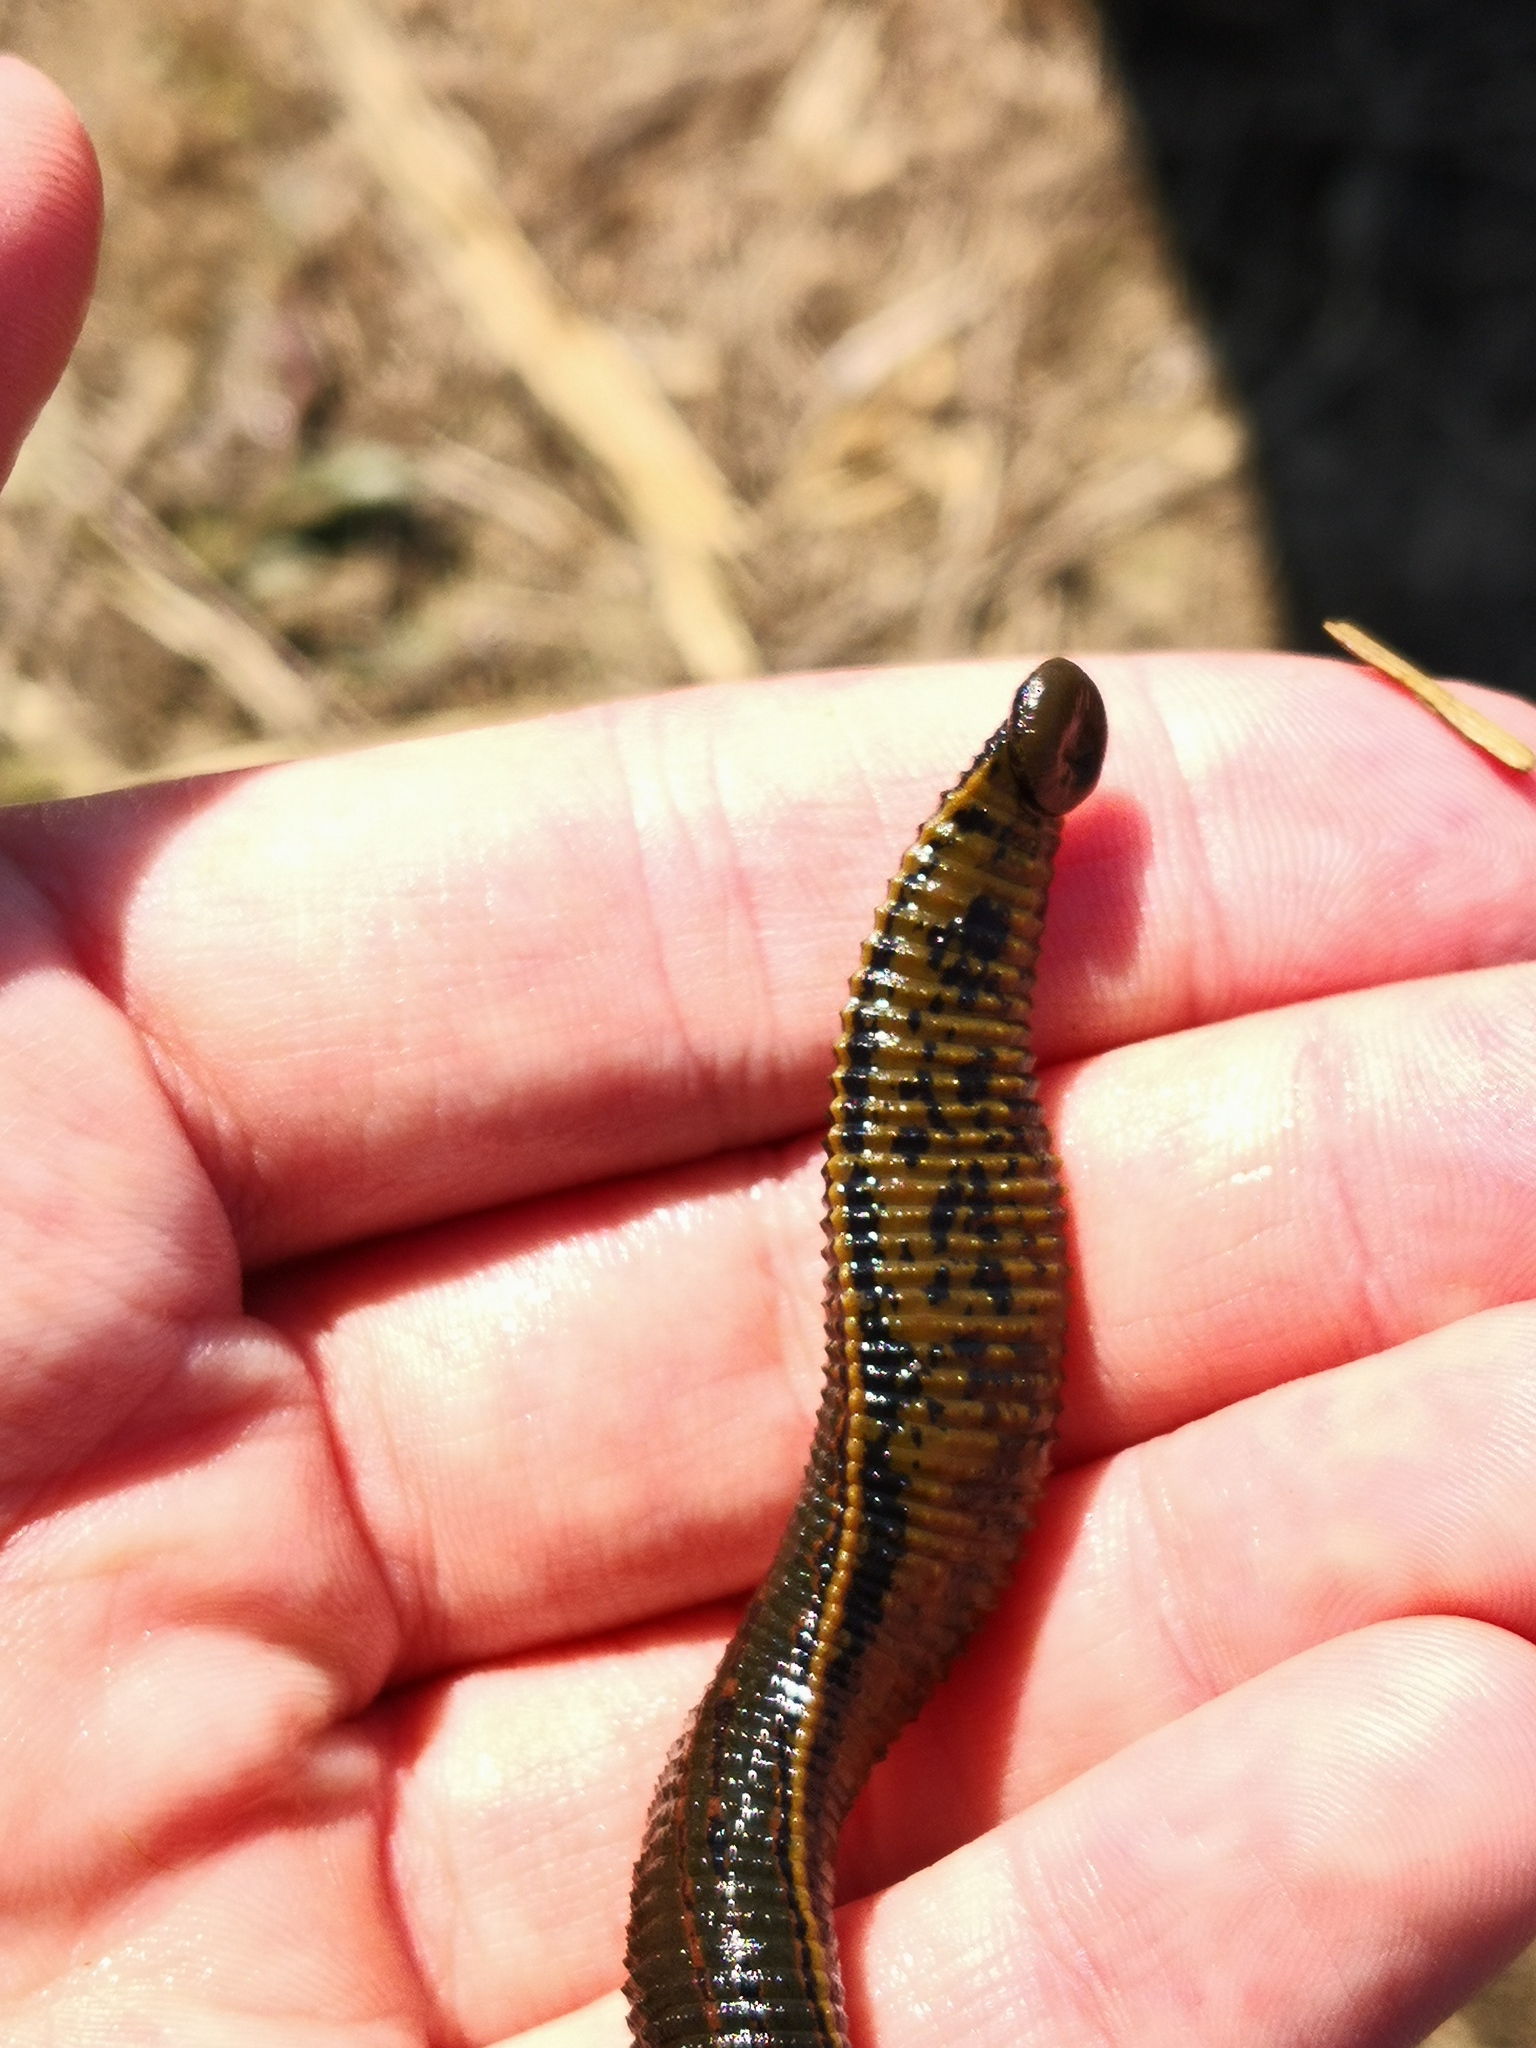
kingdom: Animalia
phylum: Annelida
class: Clitellata
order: Arhynchobdellida
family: Hirudinidae
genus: Hirudo
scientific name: Hirudo medicinalis
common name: Medicinal leech
